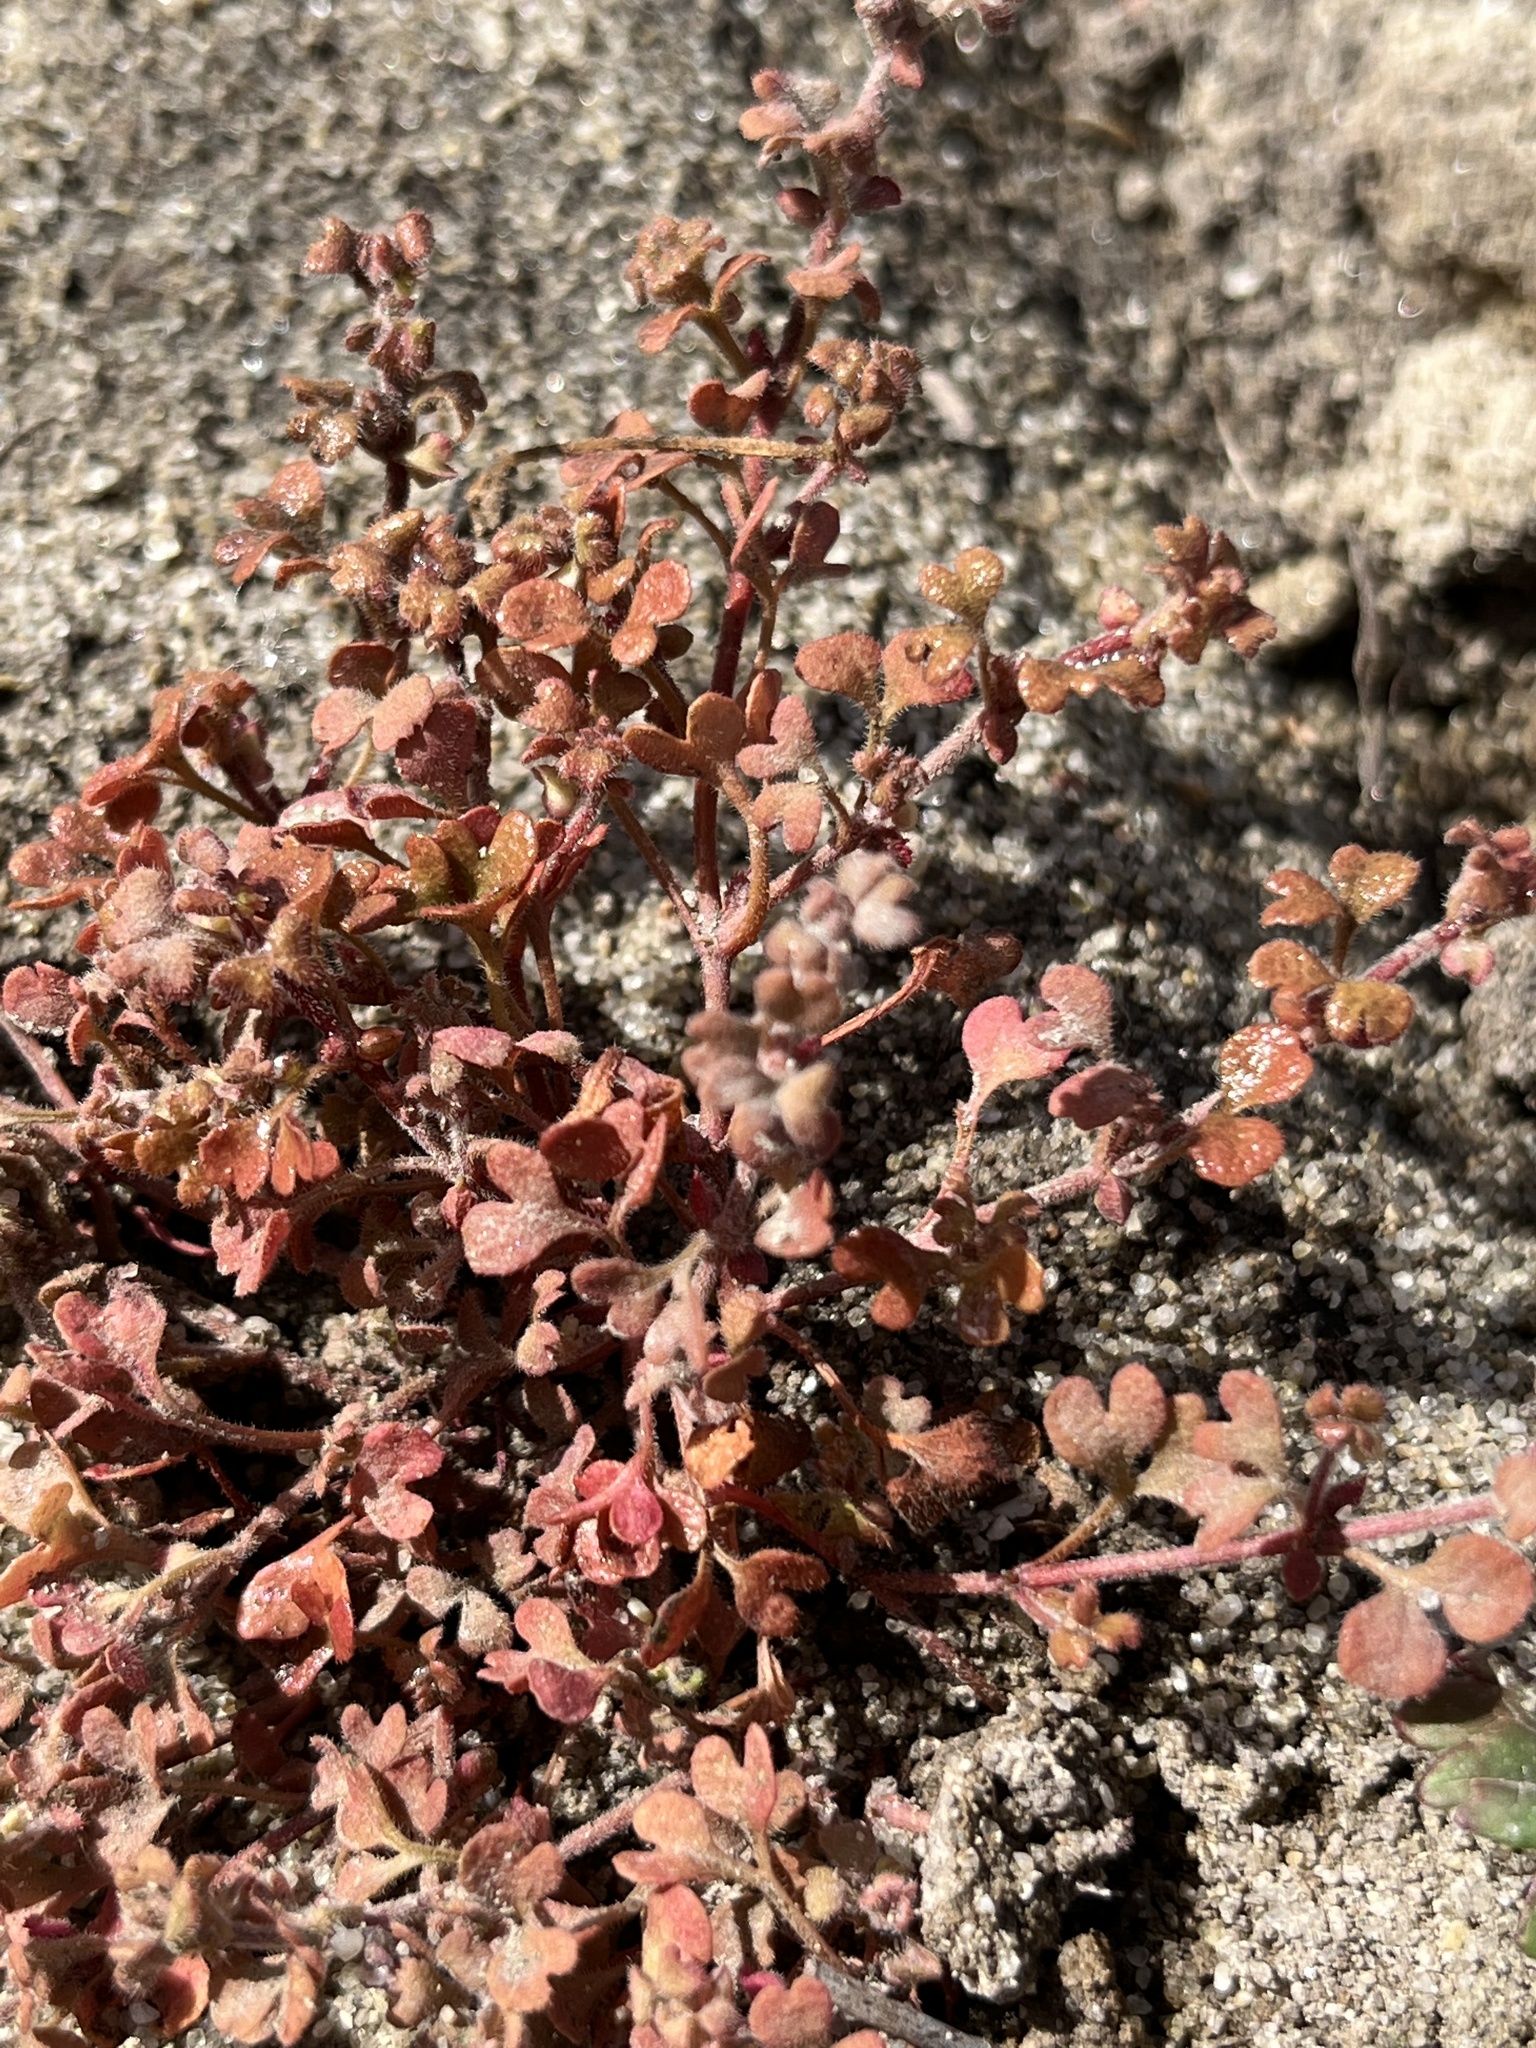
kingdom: Plantae
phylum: Tracheophyta
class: Magnoliopsida
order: Caryophyllales
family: Polygonaceae
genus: Pterostegia
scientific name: Pterostegia drymarioides
